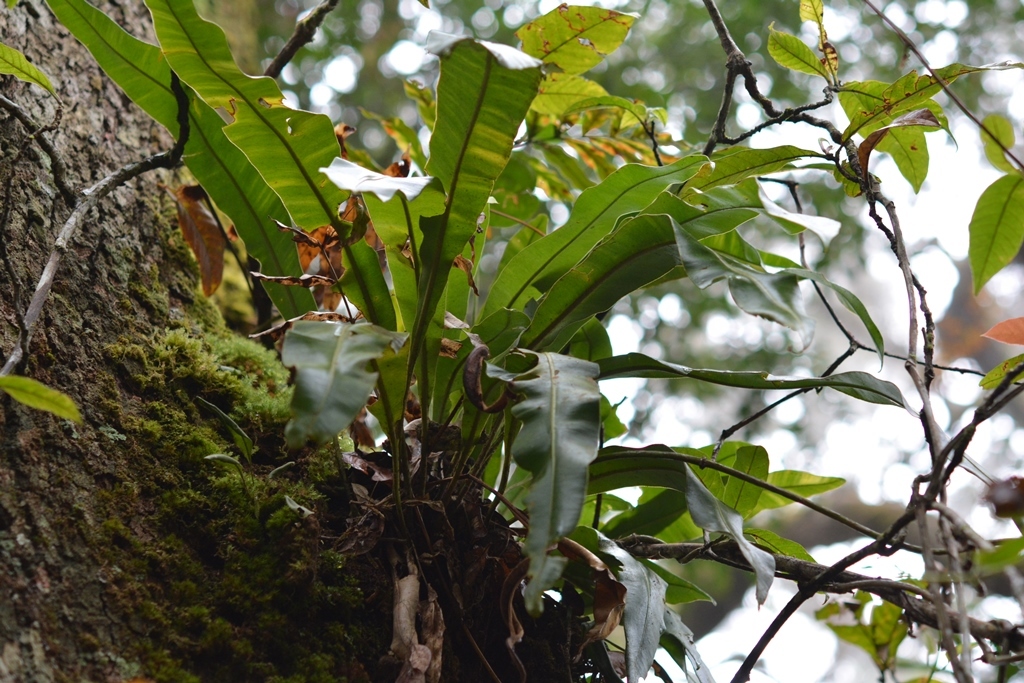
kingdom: Plantae
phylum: Tracheophyta
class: Polypodiopsida
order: Polypodiales
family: Dryopteridaceae
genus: Elaphoglossum
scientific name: Elaphoglossum sartorii
